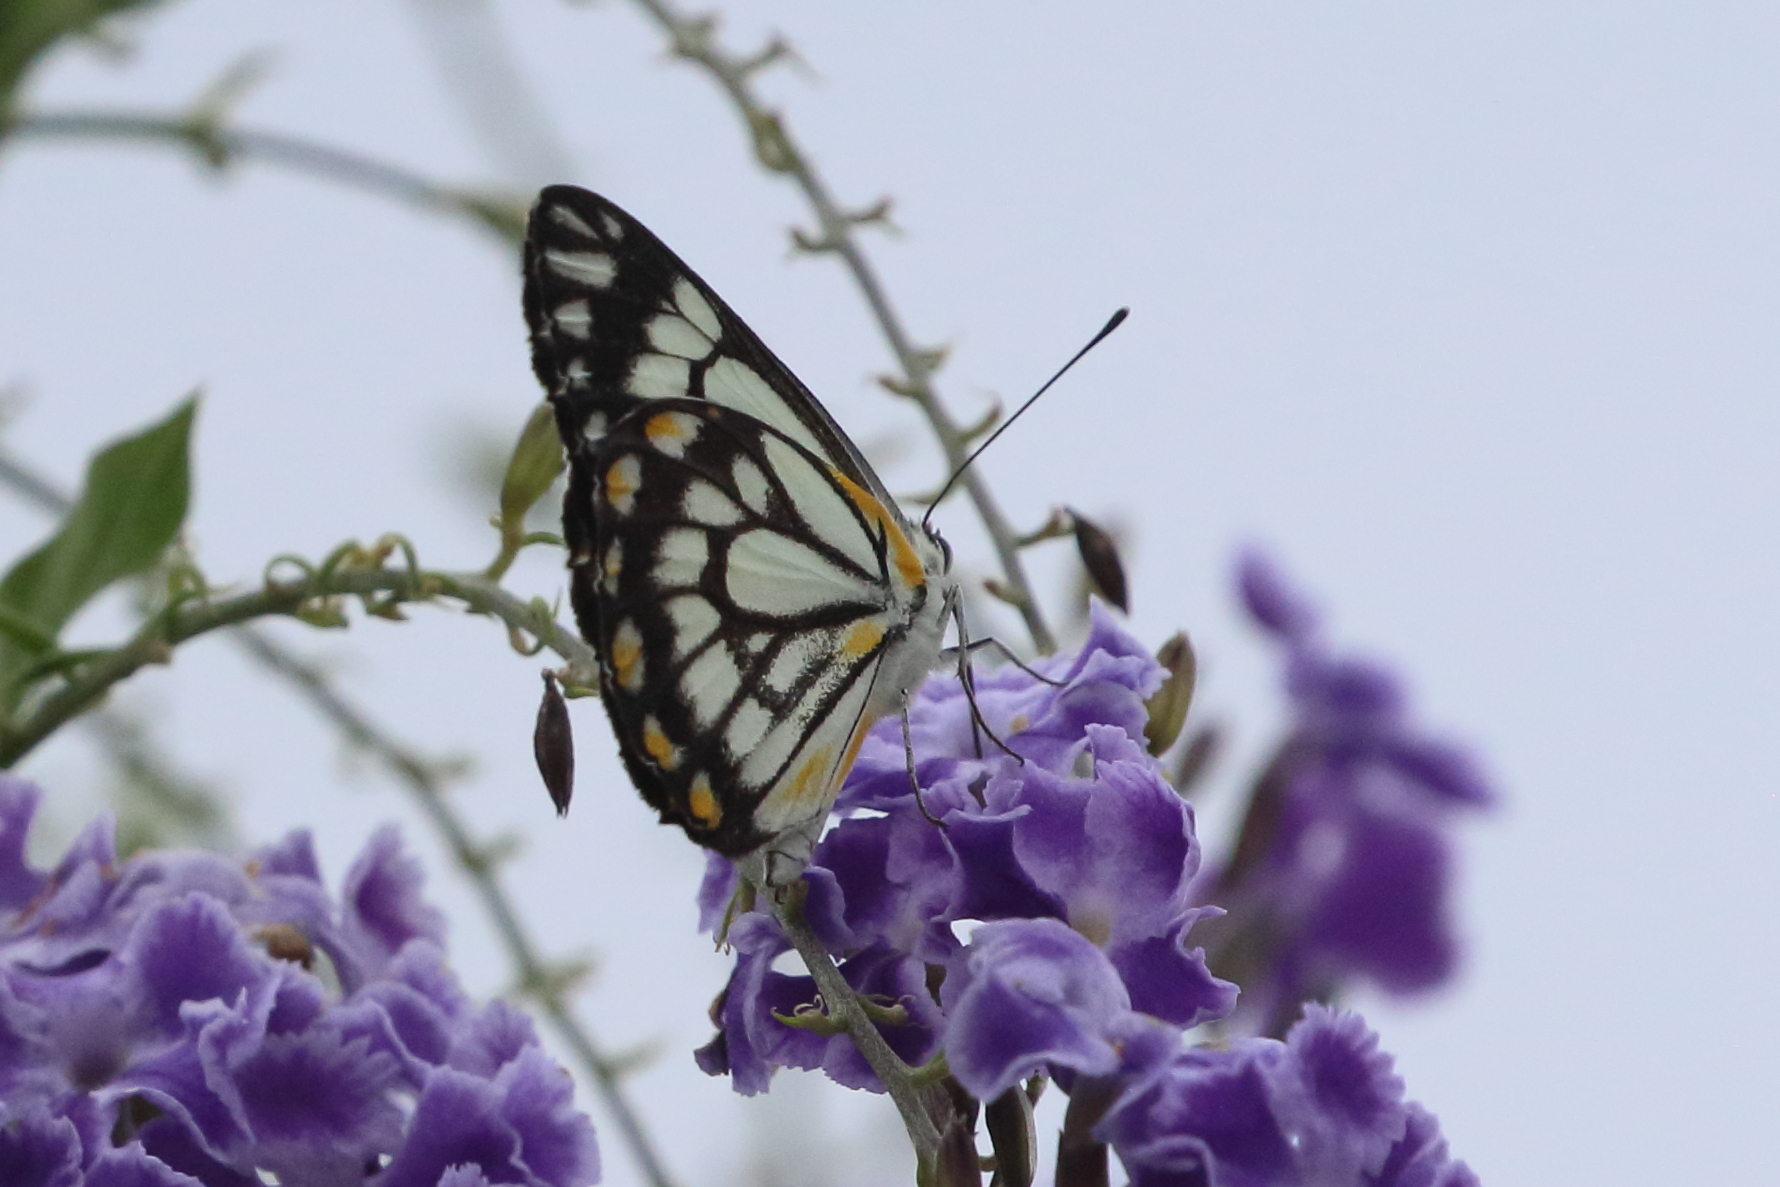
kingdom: Animalia
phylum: Arthropoda
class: Insecta
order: Lepidoptera
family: Pieridae
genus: Belenois
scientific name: Belenois java
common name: Caper white
